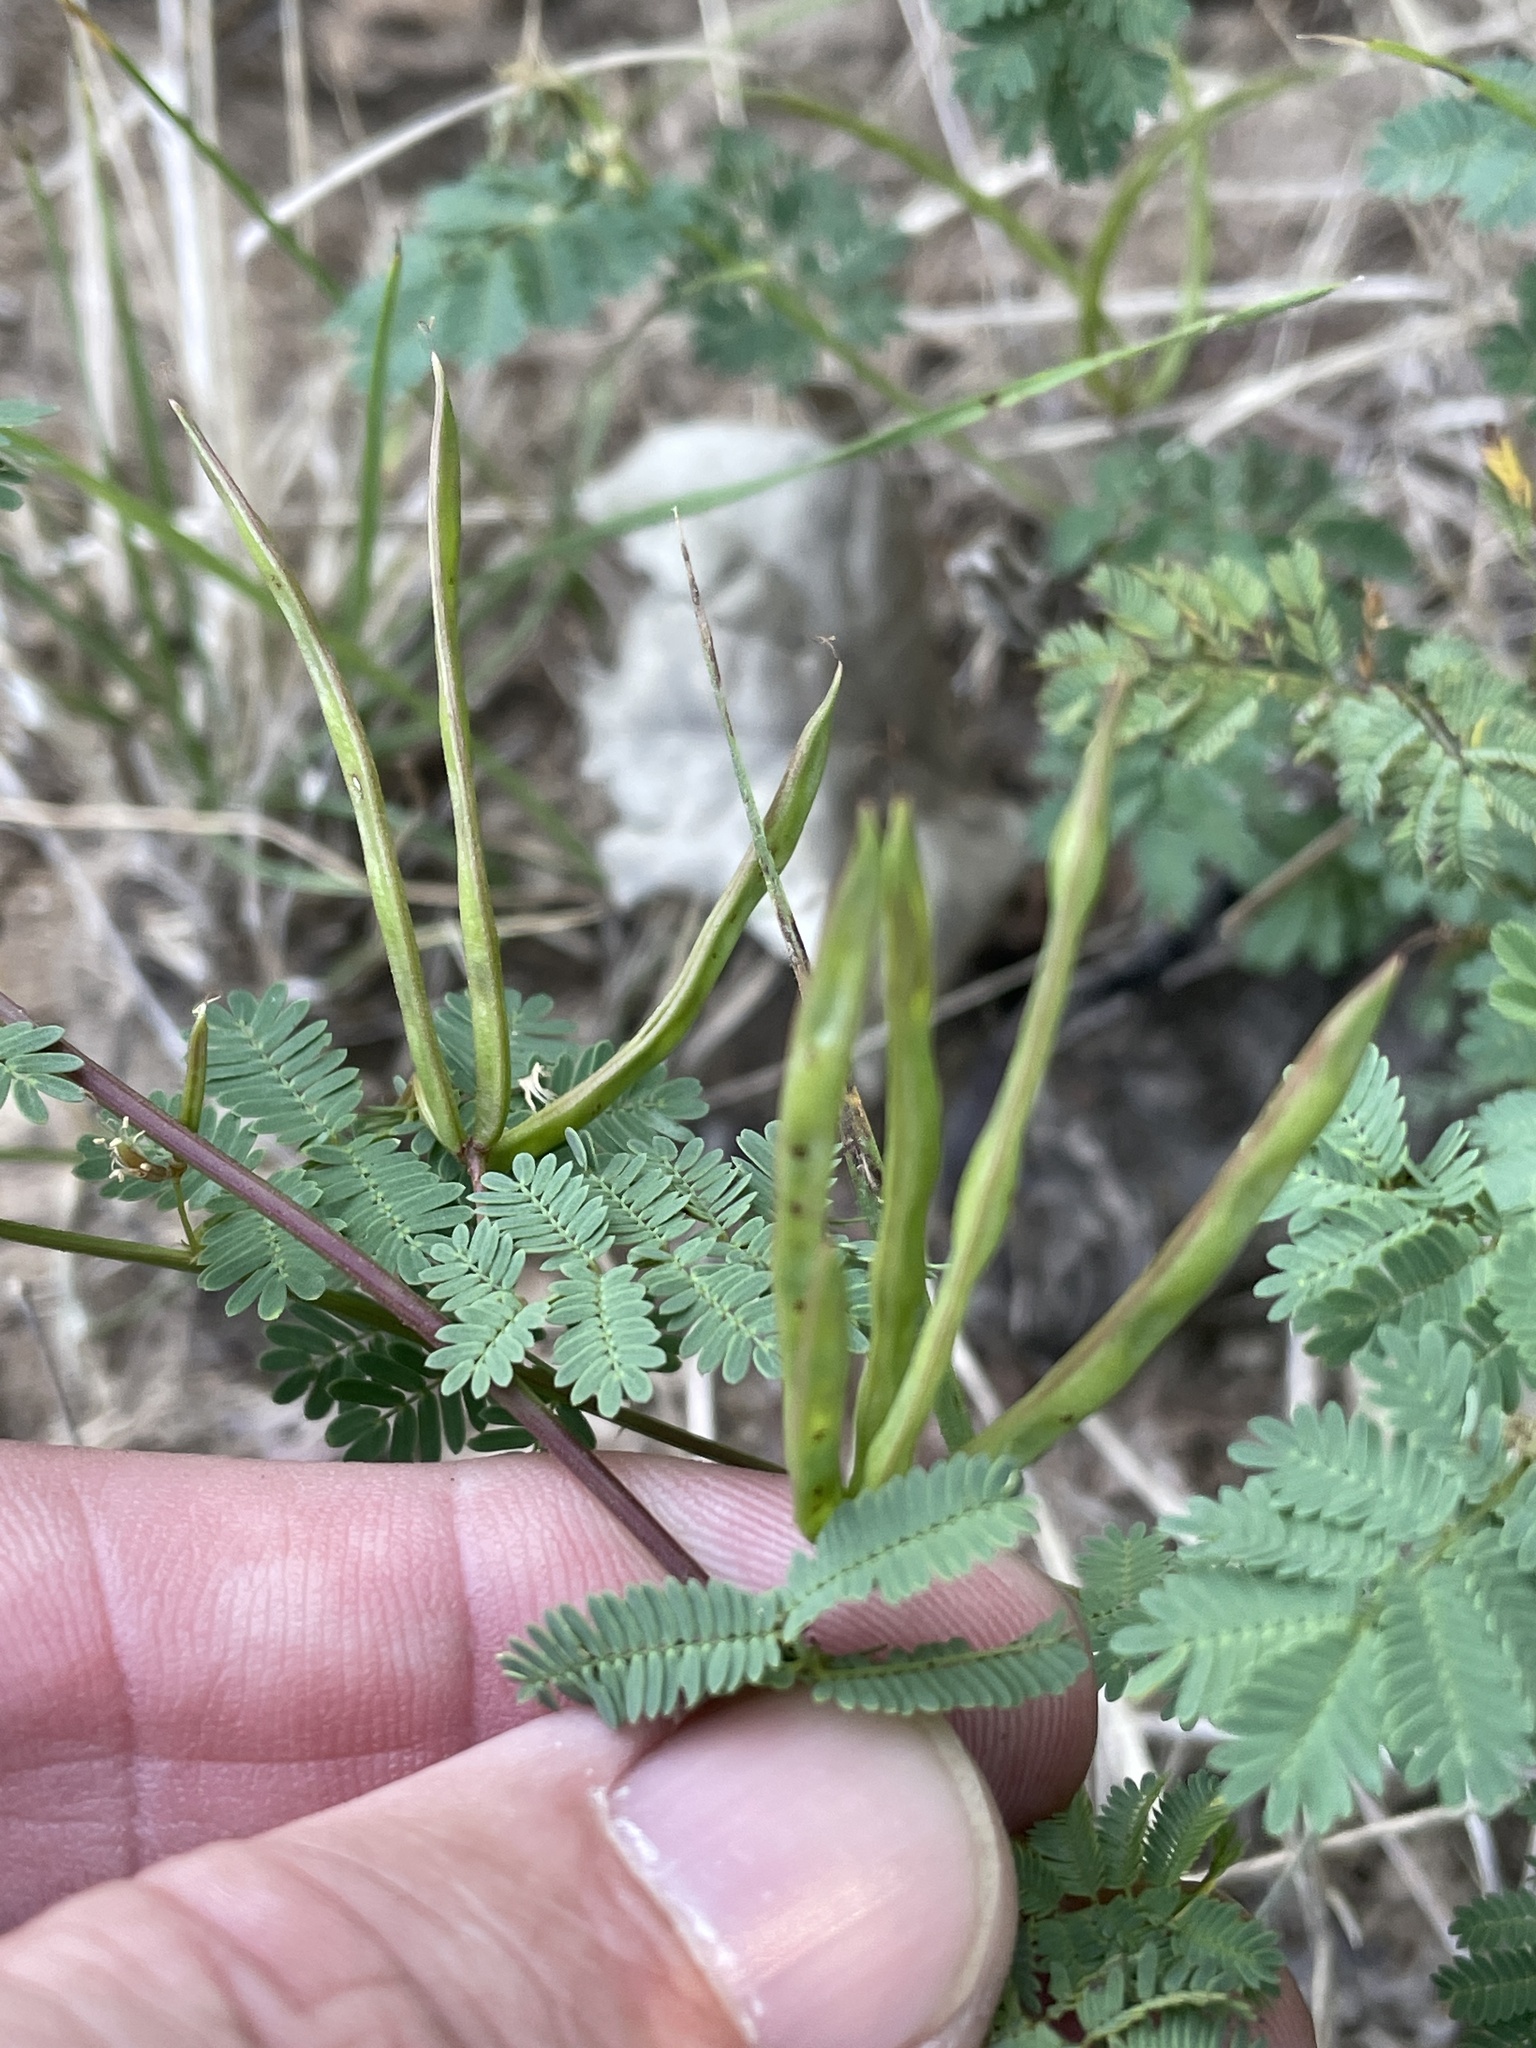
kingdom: Plantae
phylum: Tracheophyta
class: Magnoliopsida
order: Fabales
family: Fabaceae
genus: Desmanthus
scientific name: Desmanthus leptolobus
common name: Prairie-mimosa
